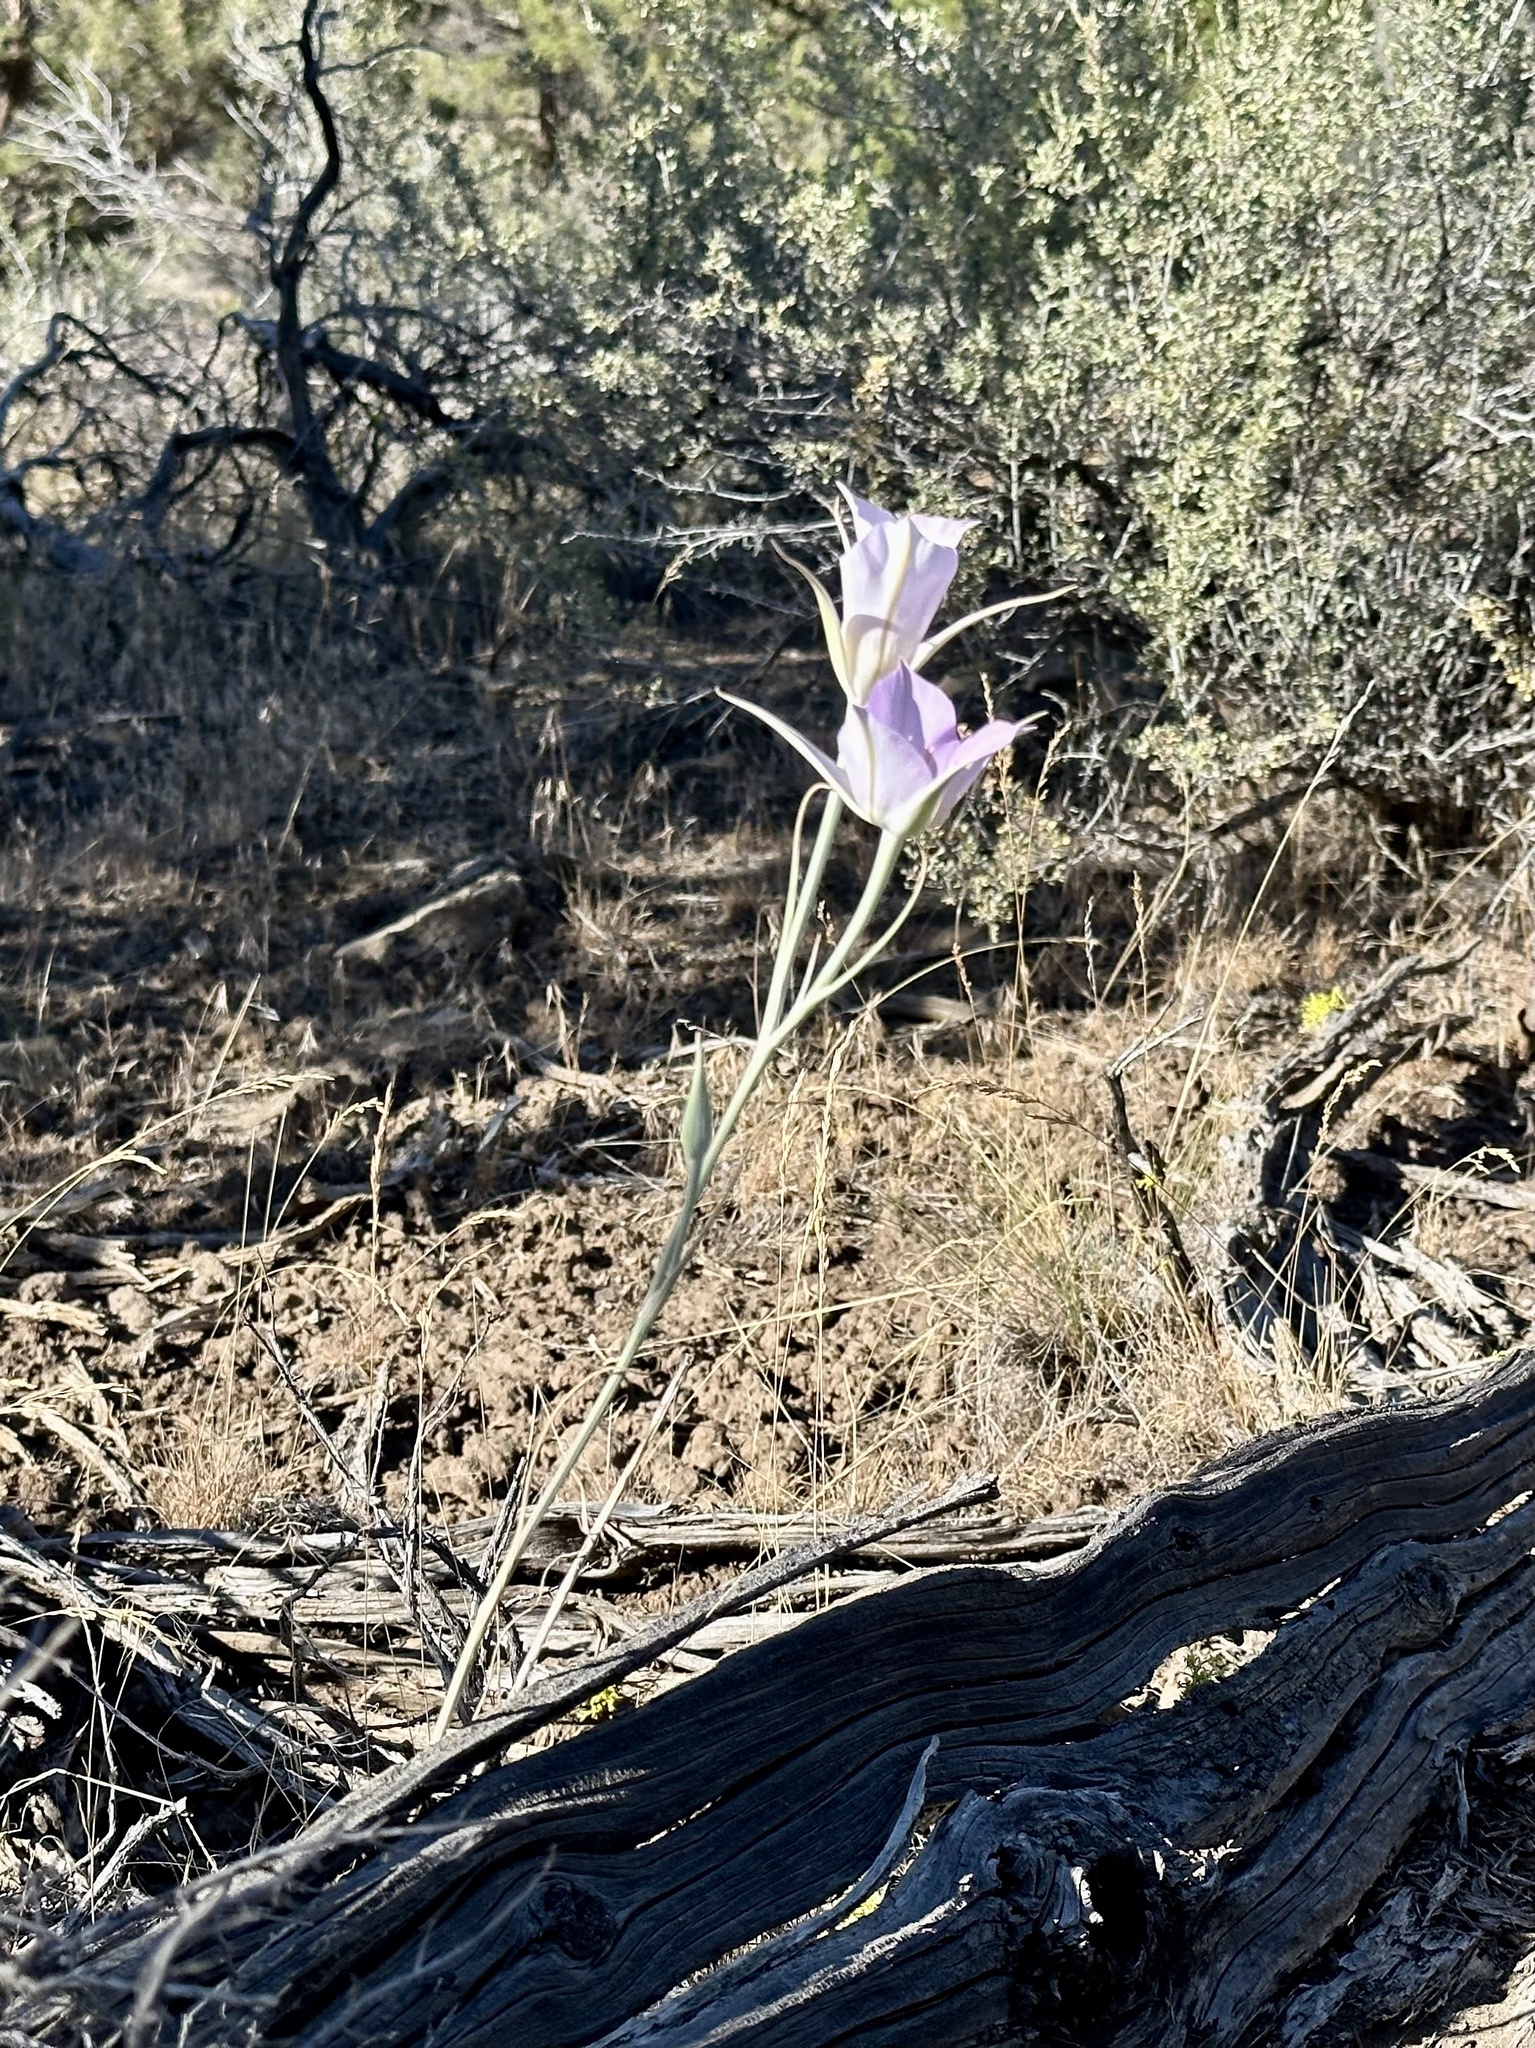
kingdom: Plantae
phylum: Tracheophyta
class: Liliopsida
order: Liliales
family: Liliaceae
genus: Calochortus
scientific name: Calochortus macrocarpus
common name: Green-band mariposa lily
